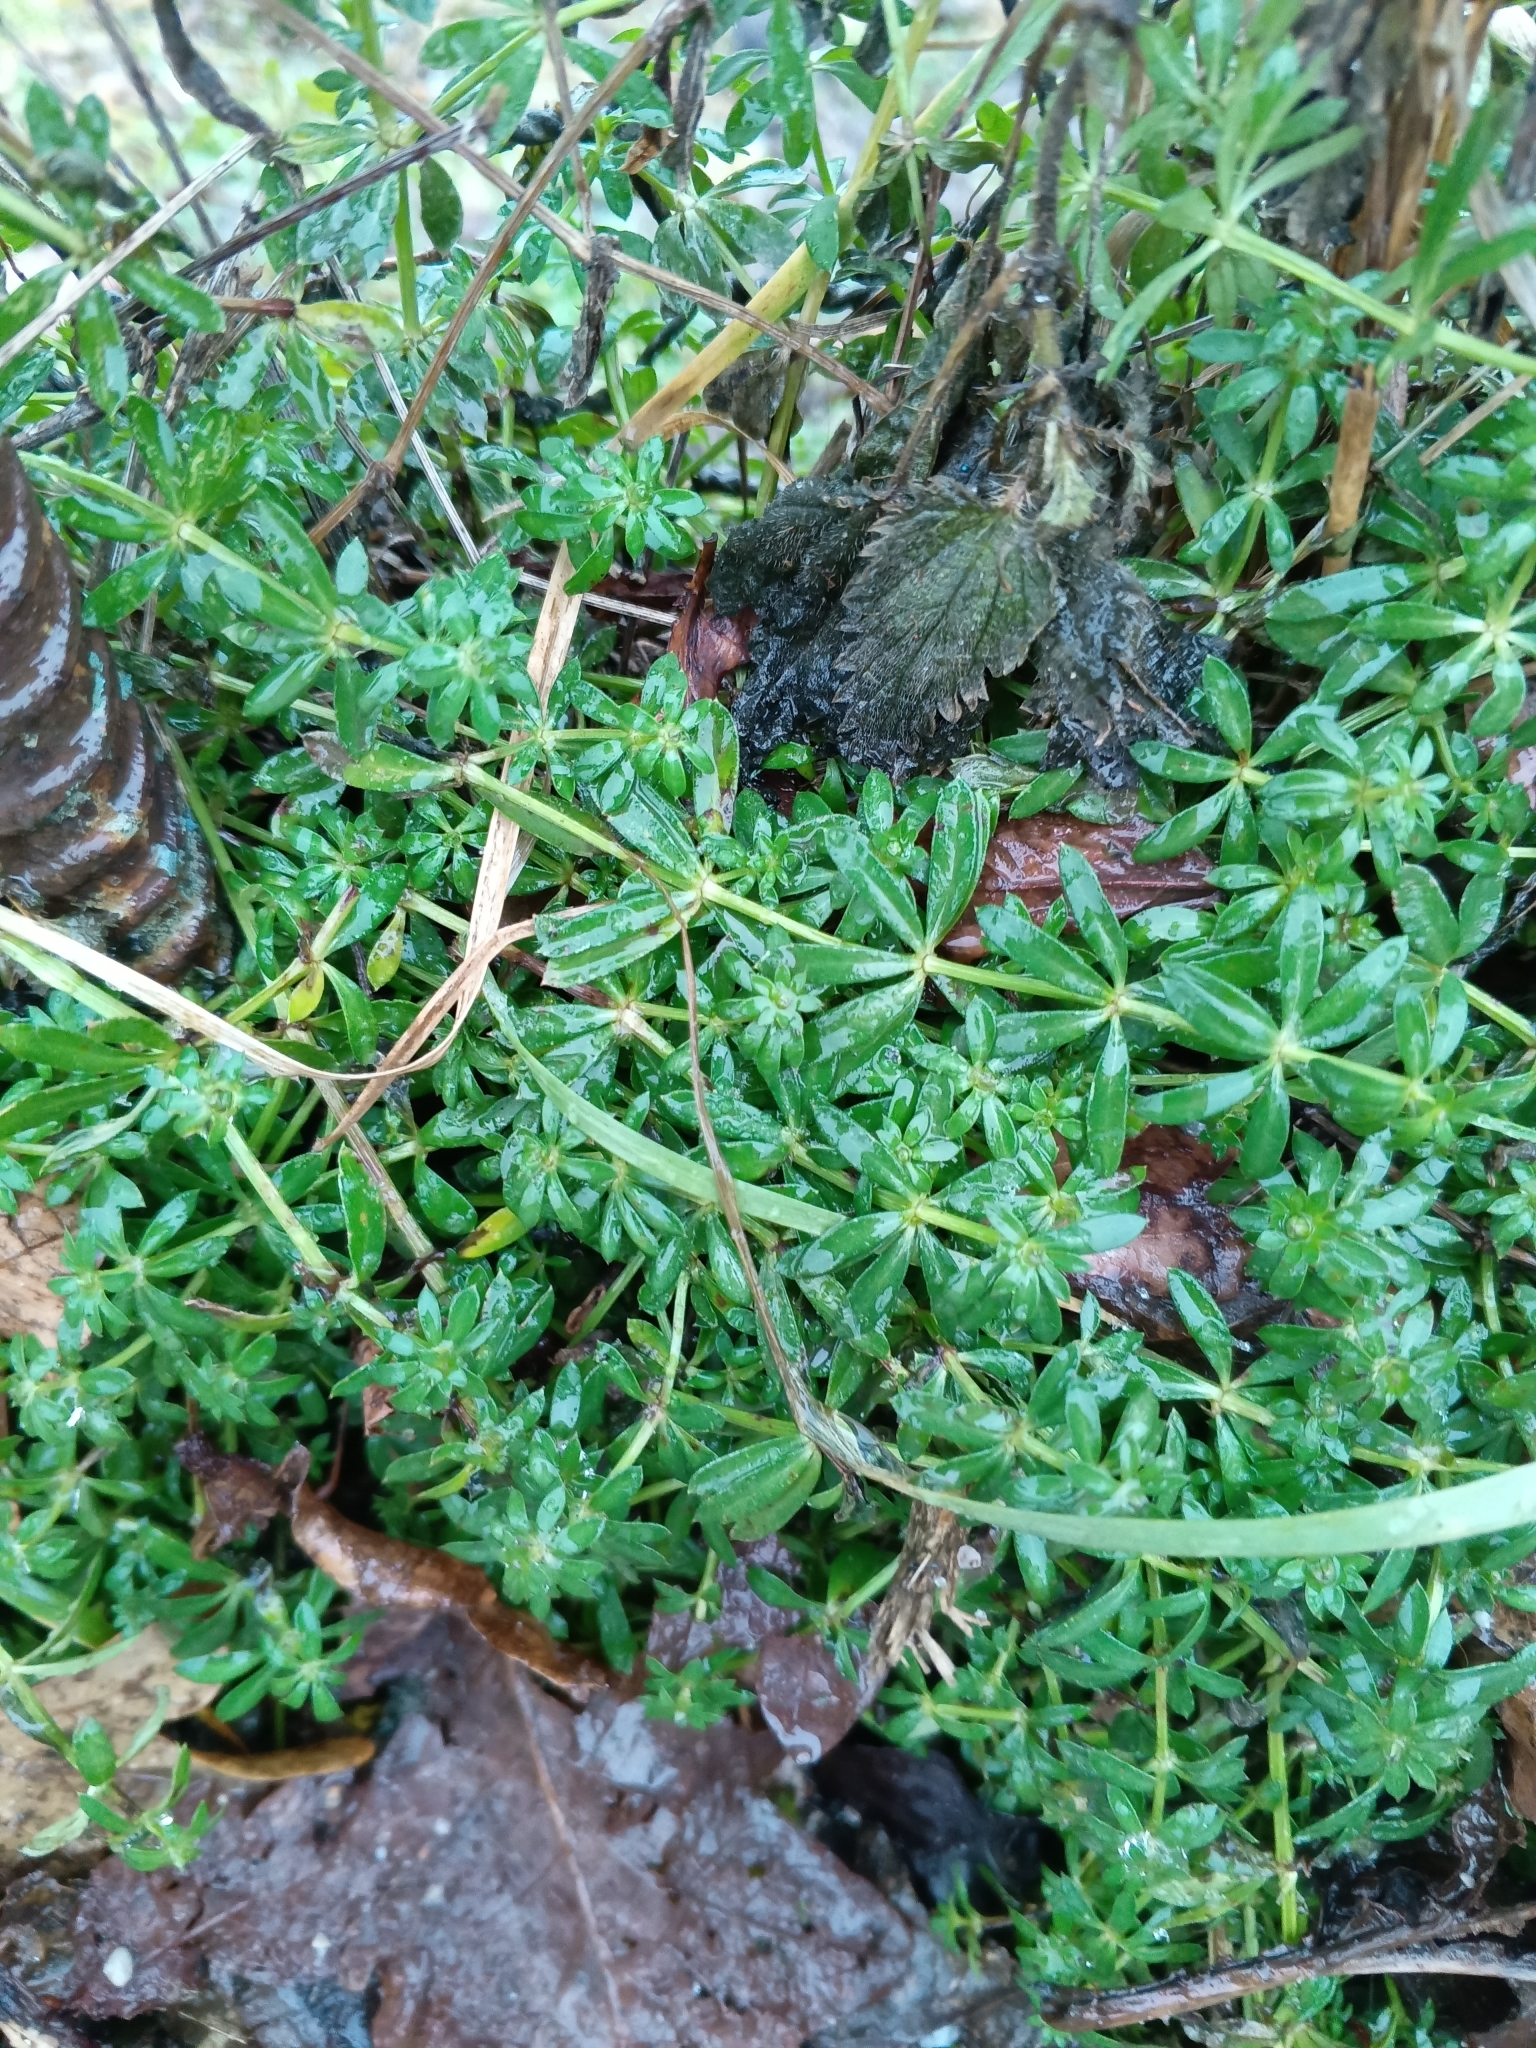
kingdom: Plantae
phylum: Tracheophyta
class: Magnoliopsida
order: Gentianales
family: Rubiaceae
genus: Galium
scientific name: Galium mollugo
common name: Hedge bedstraw
